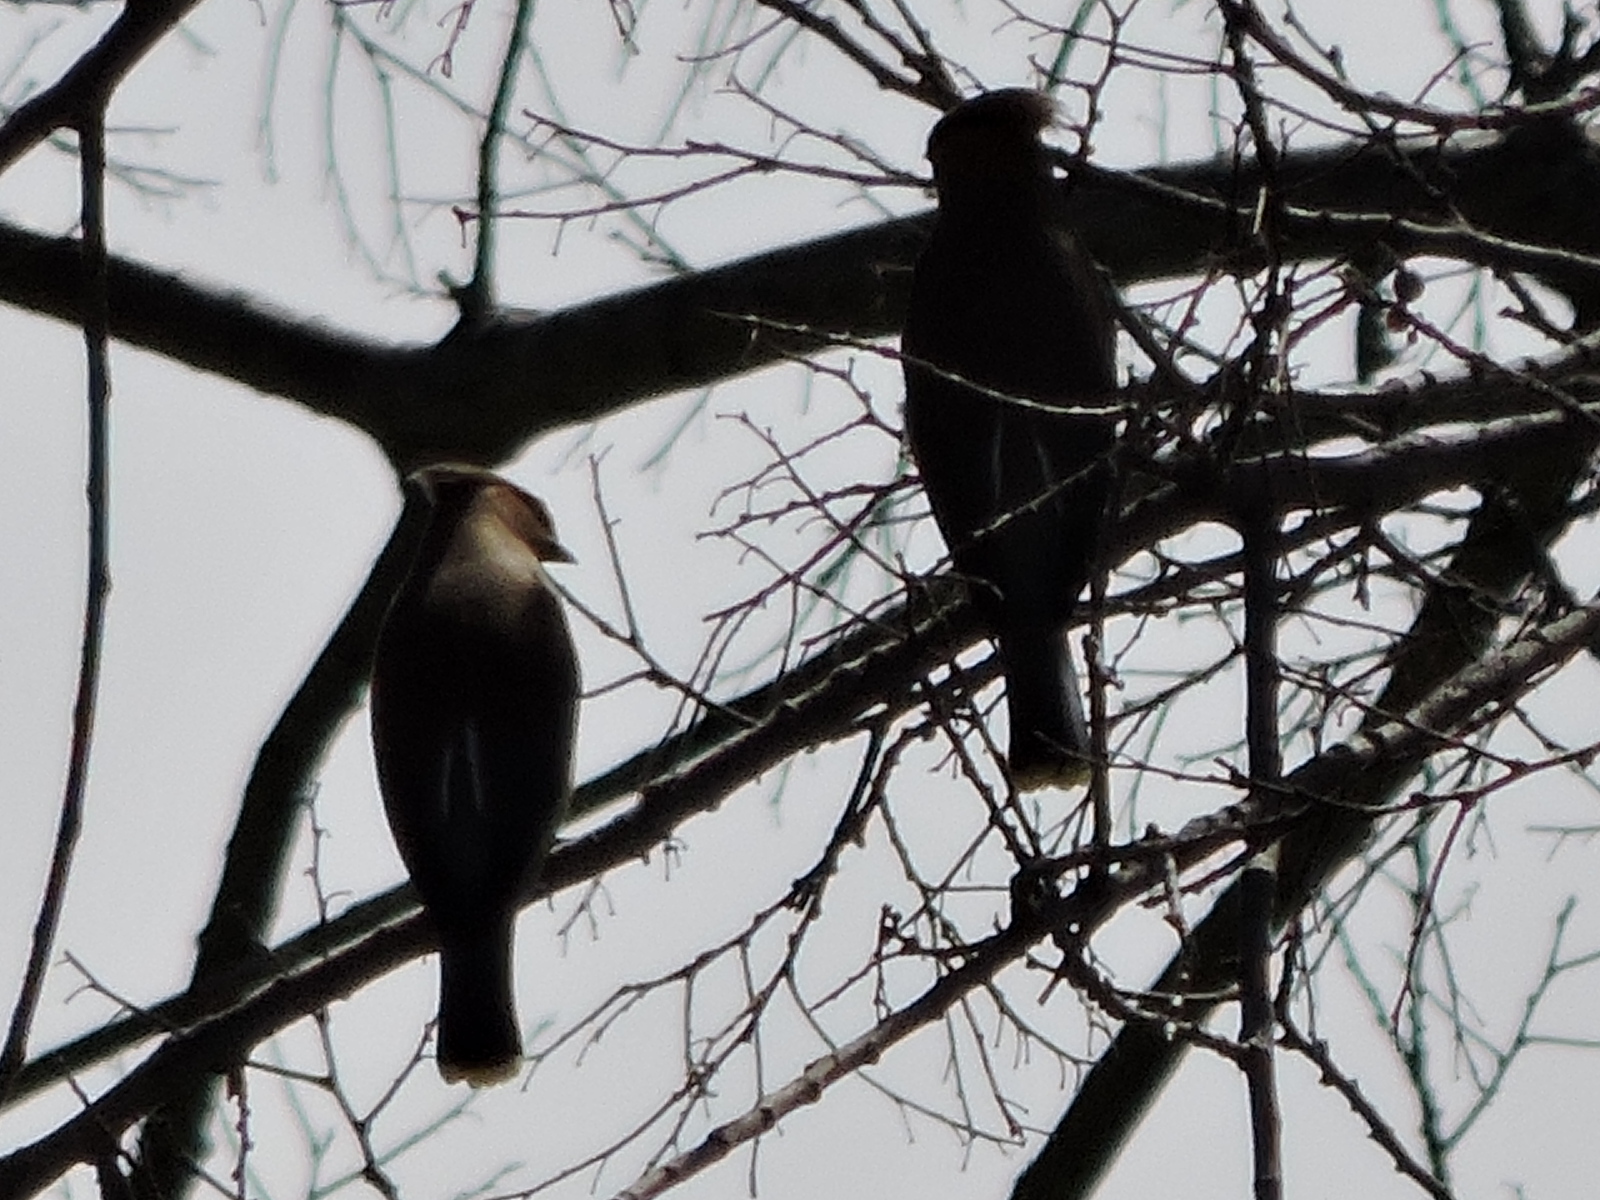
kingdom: Animalia
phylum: Chordata
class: Aves
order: Passeriformes
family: Bombycillidae
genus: Bombycilla
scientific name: Bombycilla cedrorum
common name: Cedar waxwing
